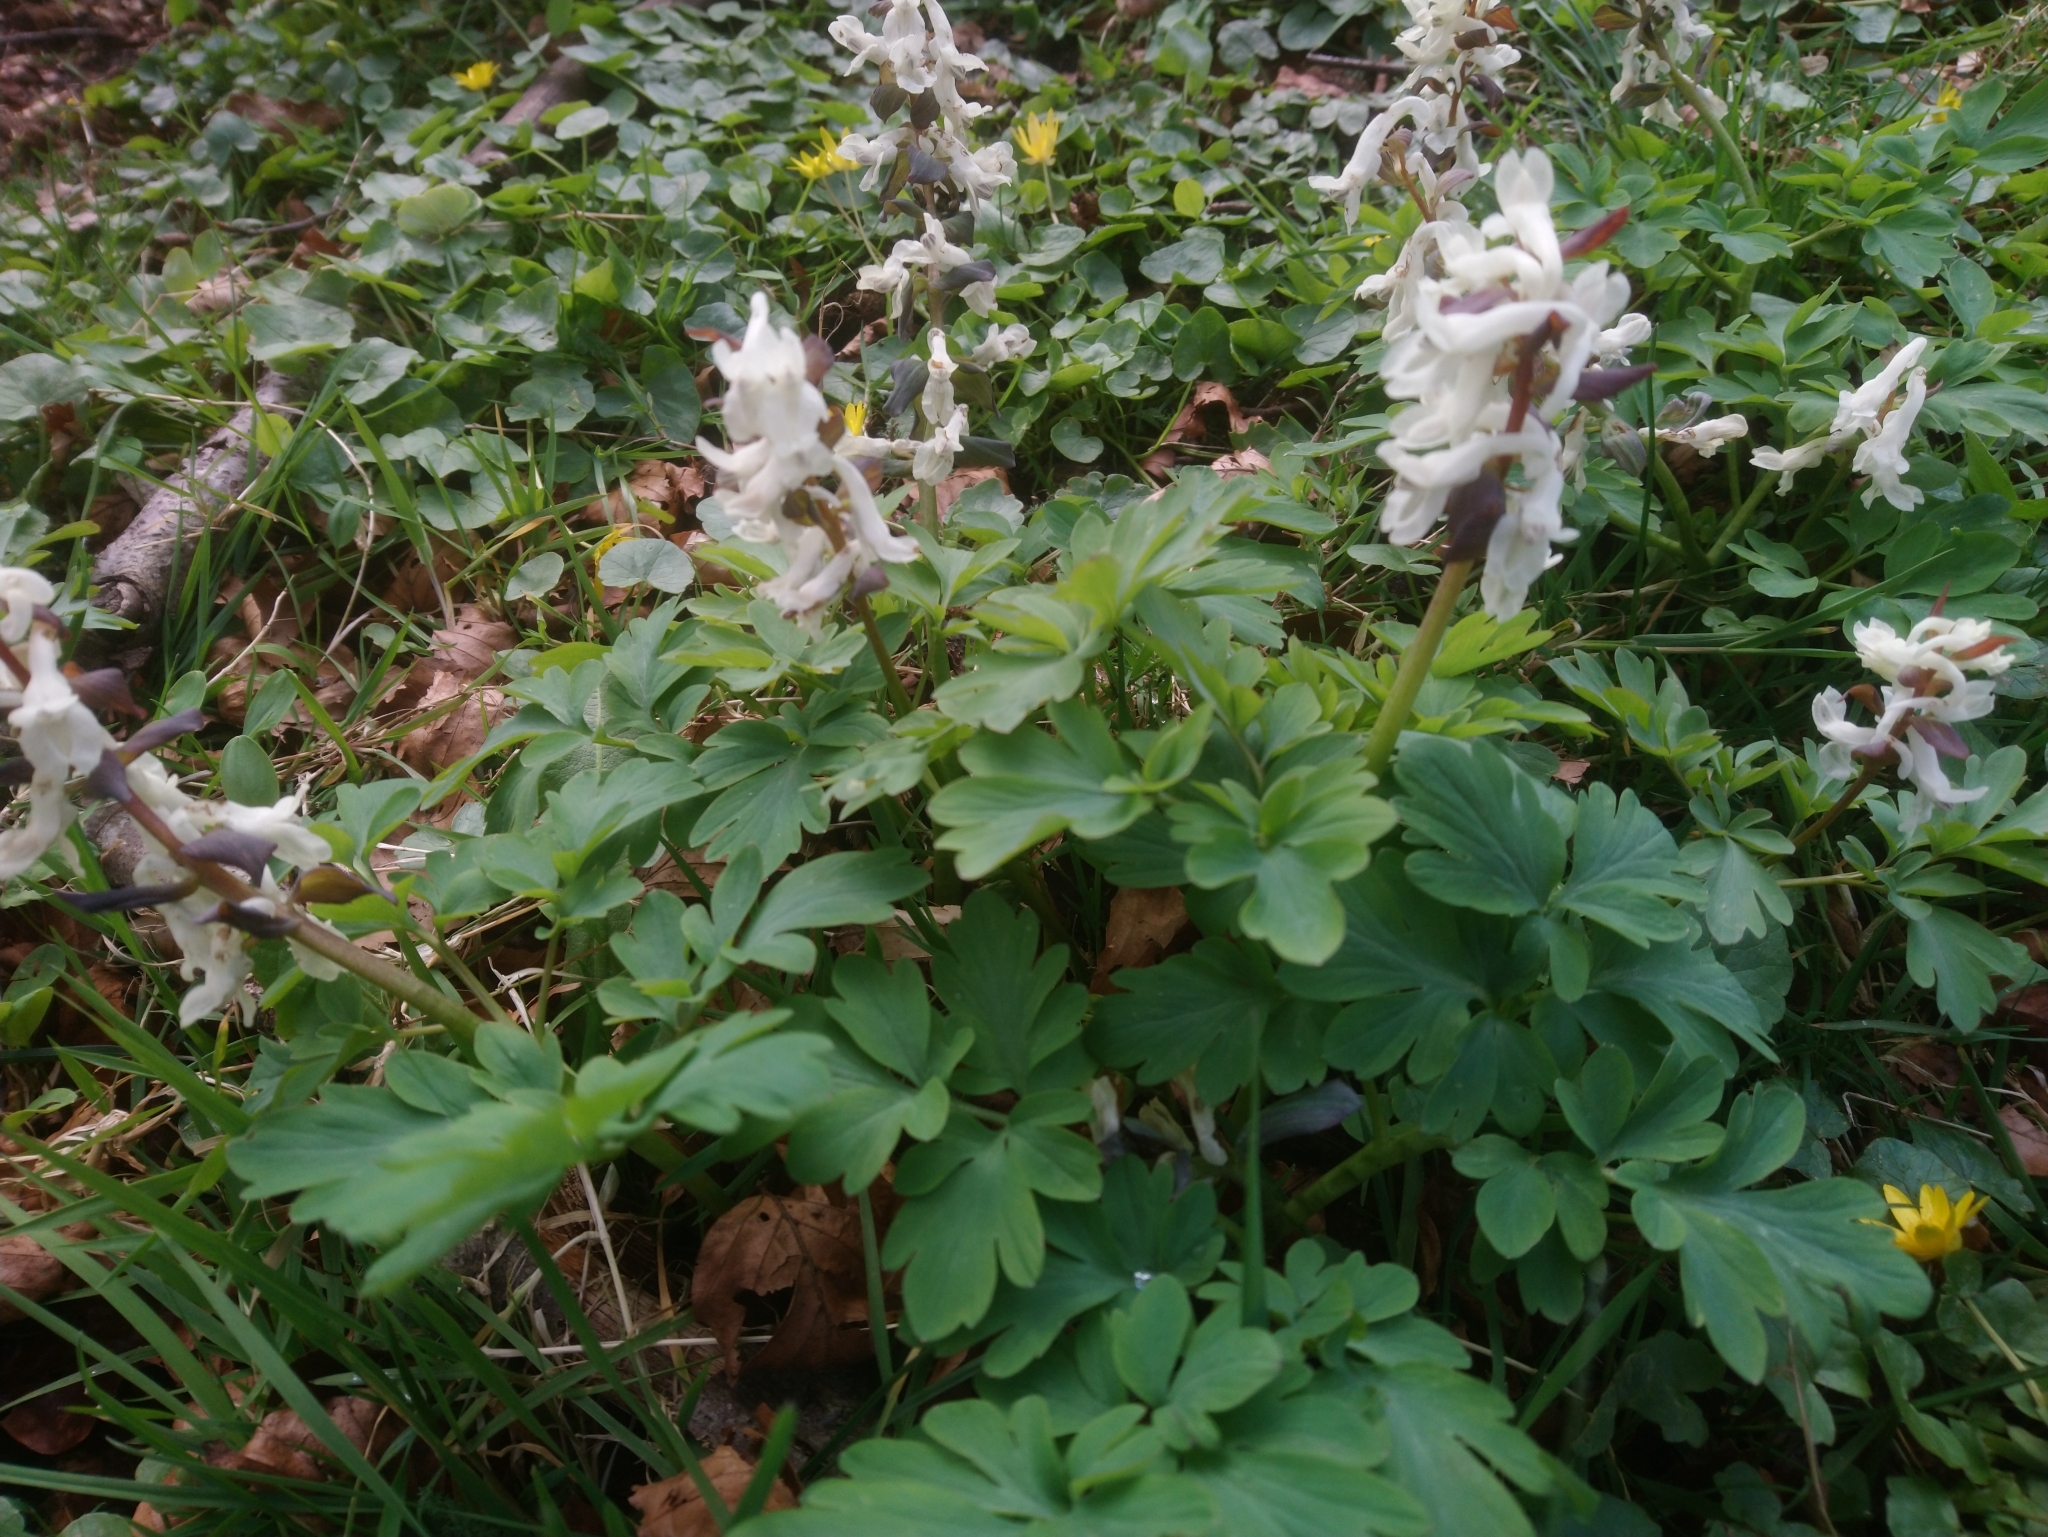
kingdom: Plantae
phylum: Tracheophyta
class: Magnoliopsida
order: Ranunculales
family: Papaveraceae
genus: Corydalis
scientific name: Corydalis cava
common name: Hollowroot
